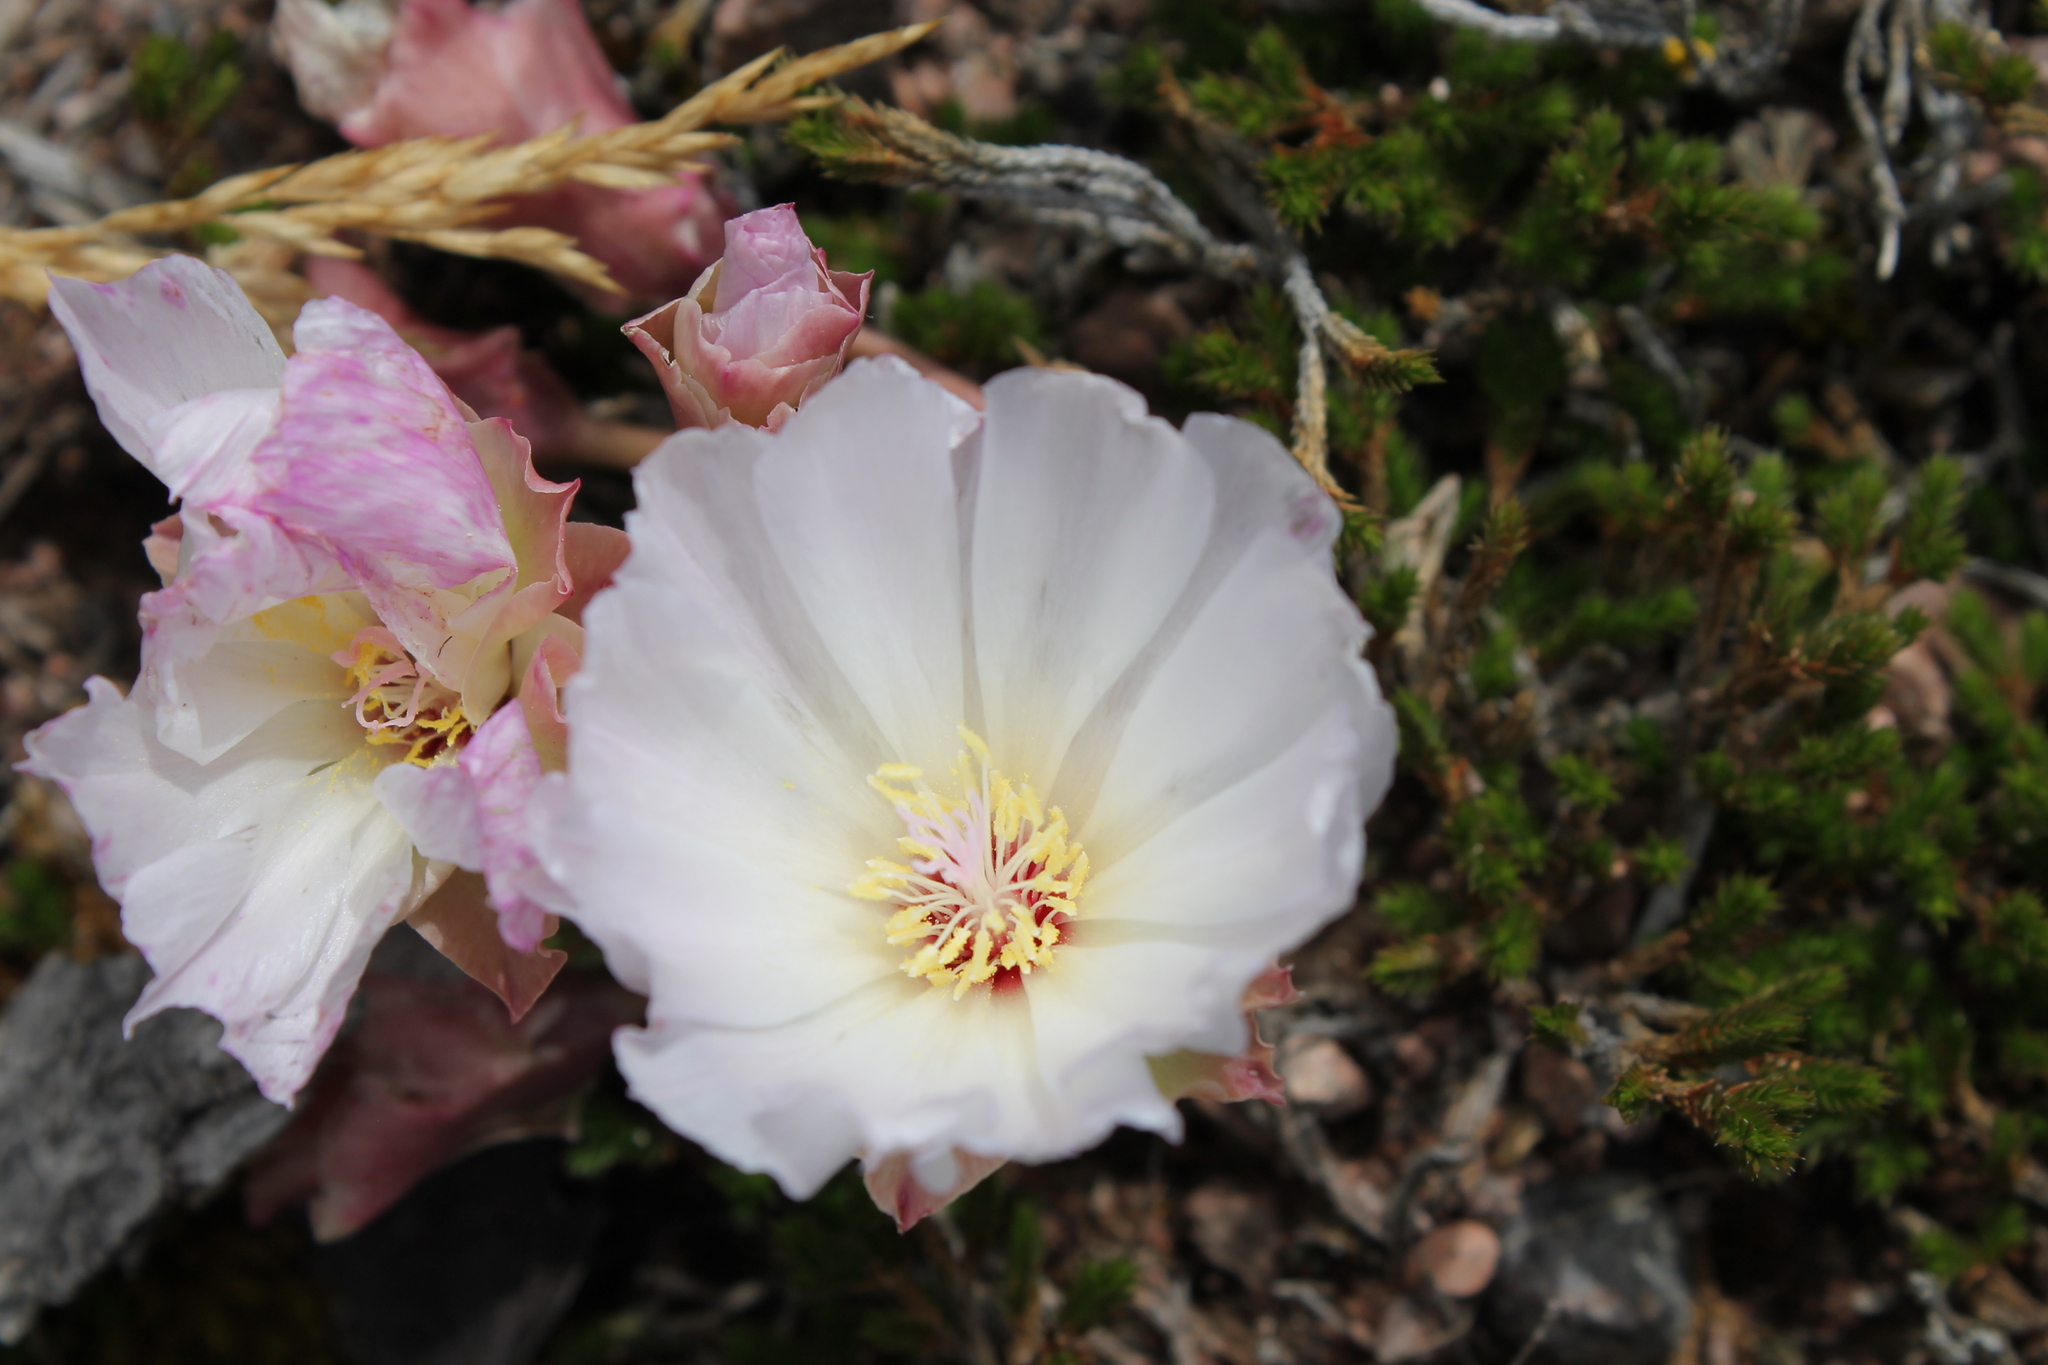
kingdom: Plantae
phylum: Tracheophyta
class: Magnoliopsida
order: Caryophyllales
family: Montiaceae
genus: Lewisia
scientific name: Lewisia rediviva
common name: Bitter-root
